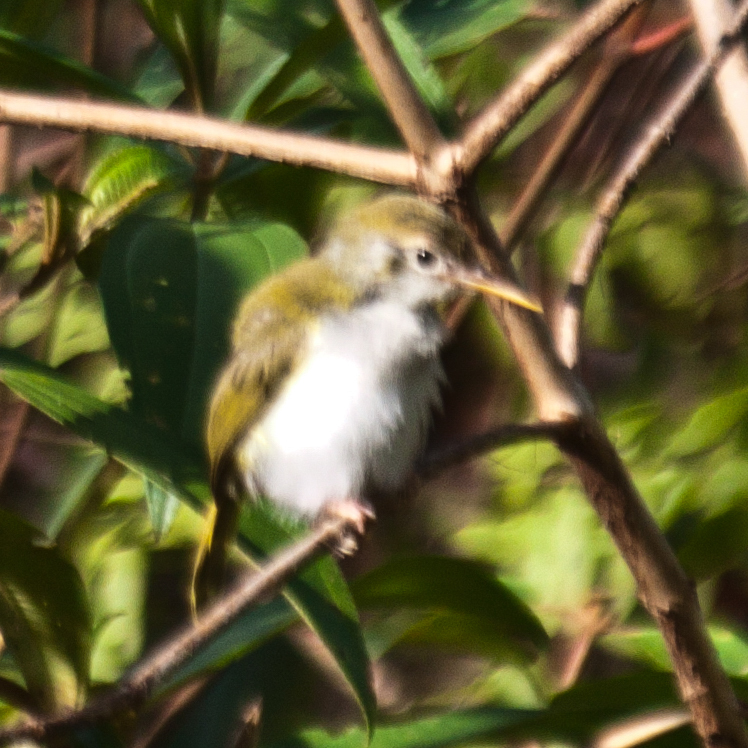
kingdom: Animalia
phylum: Chordata
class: Aves
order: Passeriformes
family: Cisticolidae
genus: Orthotomus
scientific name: Orthotomus sutorius
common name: Common tailorbird
